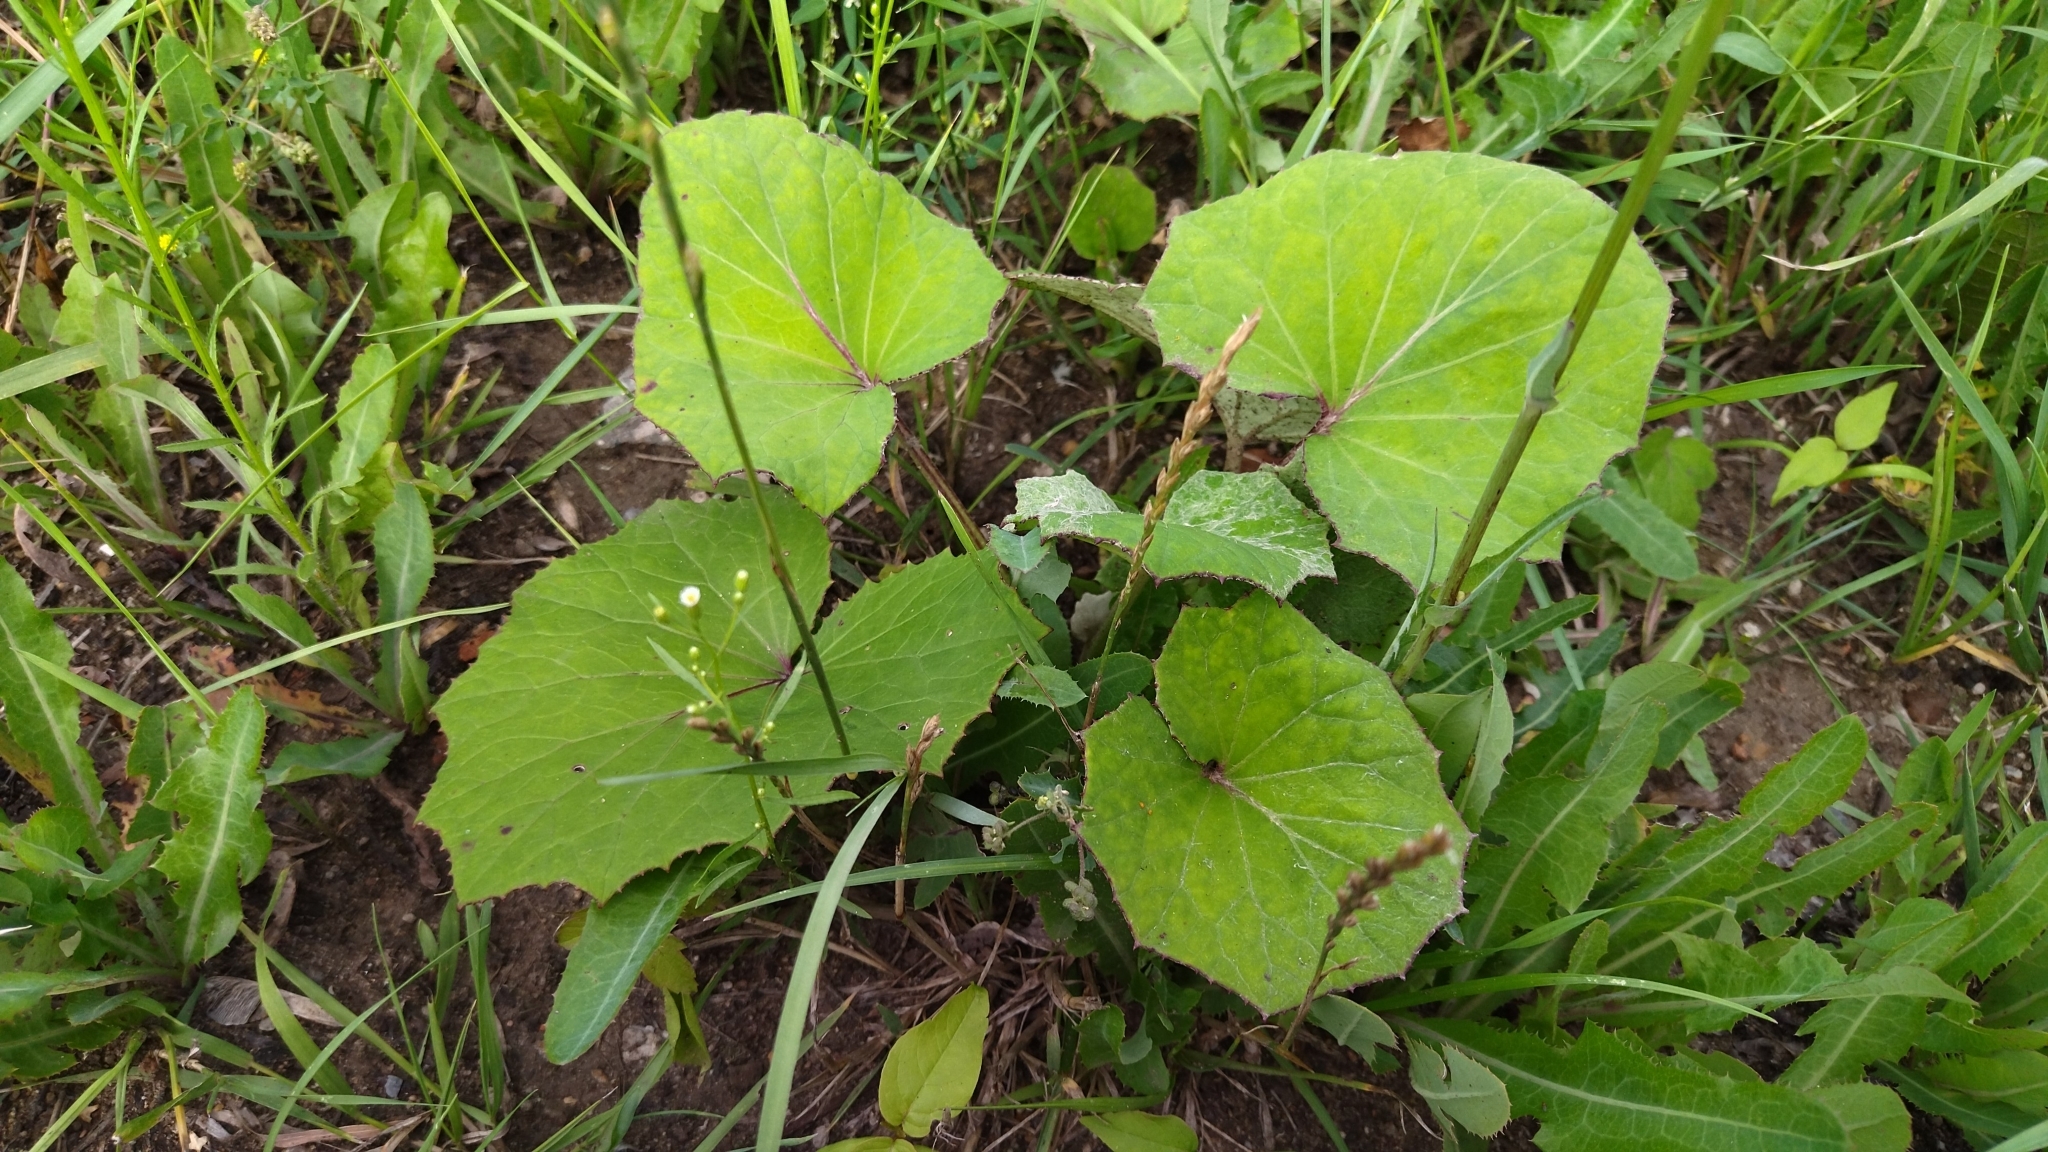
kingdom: Plantae
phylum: Tracheophyta
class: Magnoliopsida
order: Asterales
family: Asteraceae
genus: Tussilago
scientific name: Tussilago farfara
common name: Coltsfoot
